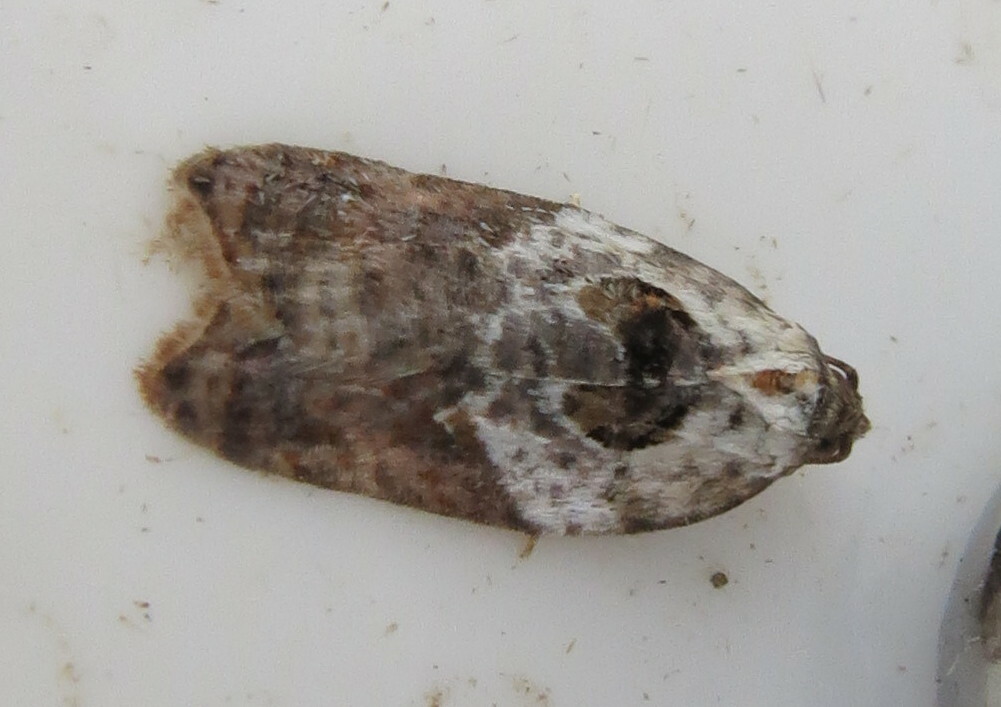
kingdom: Animalia
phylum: Arthropoda
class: Insecta
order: Lepidoptera
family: Tortricidae
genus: Acleris
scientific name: Acleris variegana
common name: Garden rose tortrix
